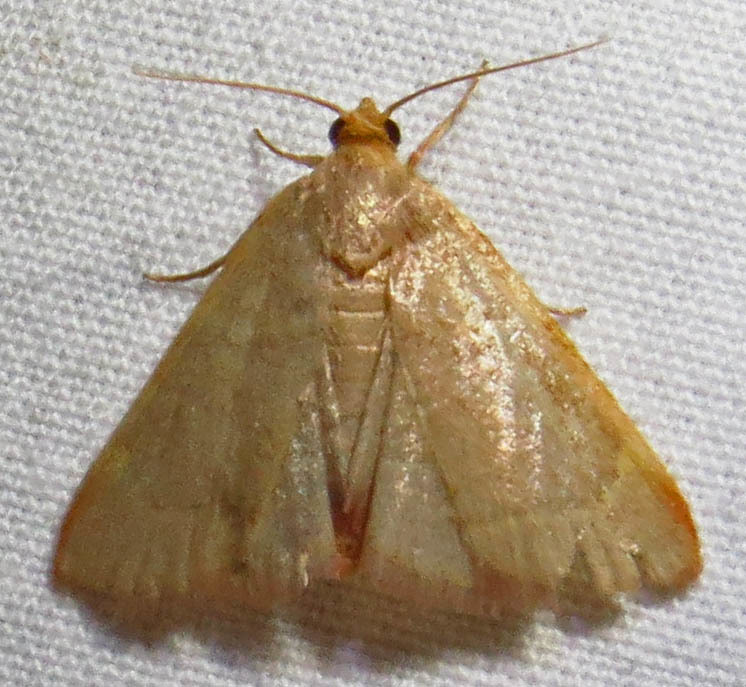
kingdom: Animalia
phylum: Arthropoda
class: Insecta
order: Lepidoptera
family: Pyralidae
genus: Hypsopygia
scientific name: Hypsopygia binodulalis
